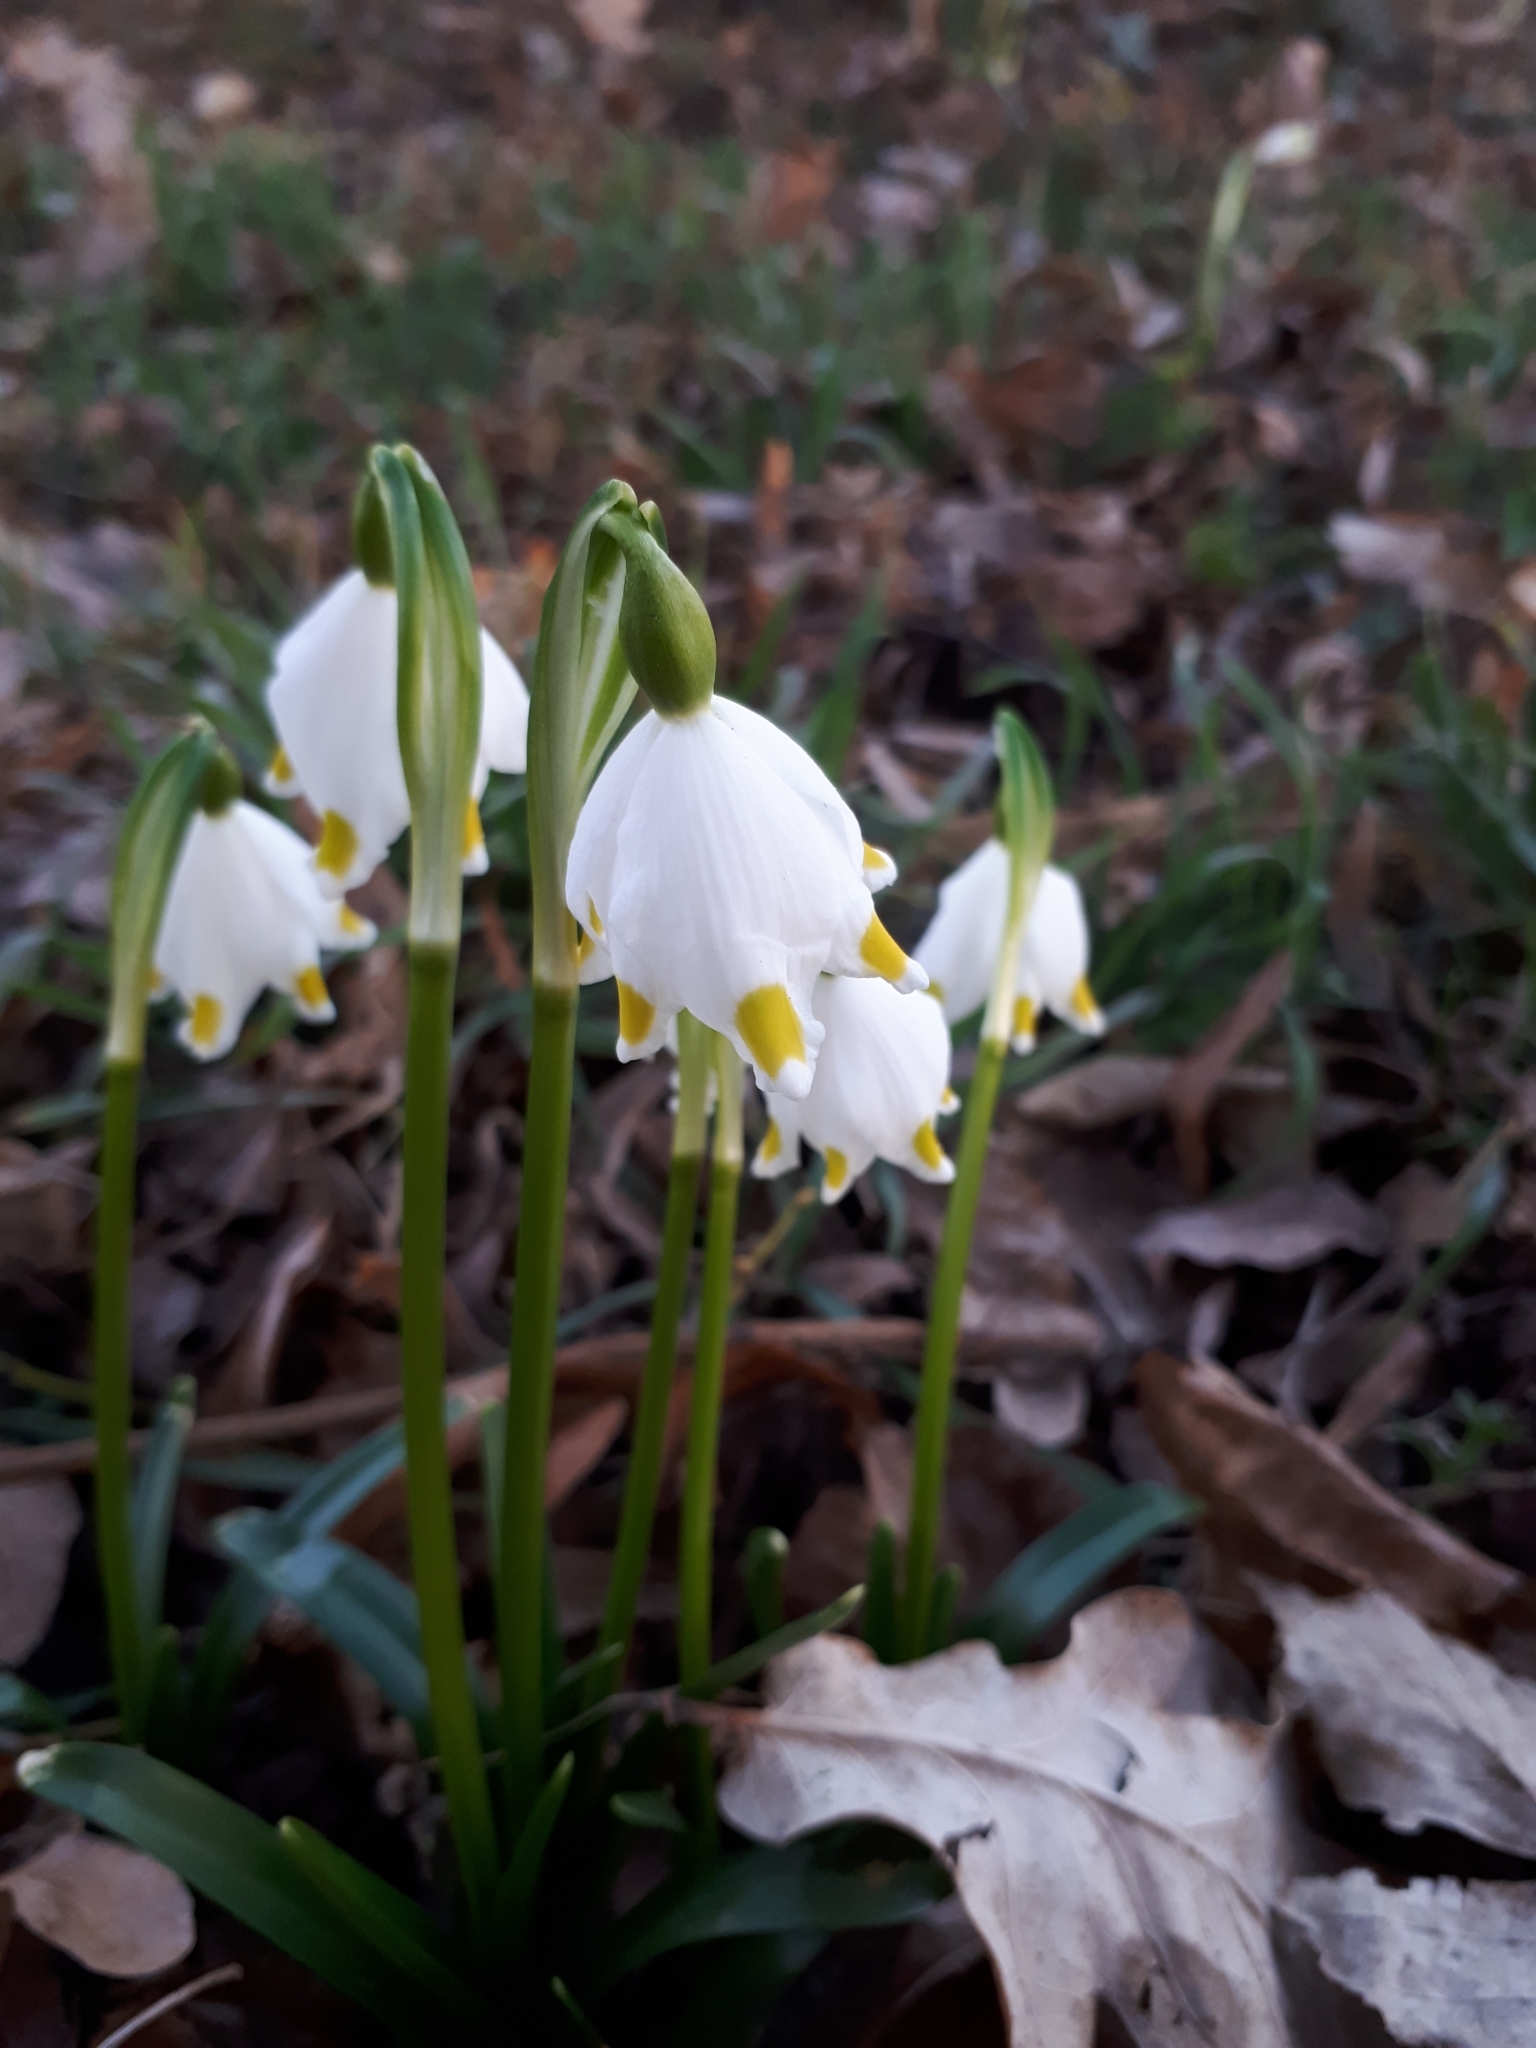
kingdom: Plantae
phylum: Tracheophyta
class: Liliopsida
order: Asparagales
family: Amaryllidaceae
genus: Leucojum
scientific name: Leucojum vernum
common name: Spring snowflake
